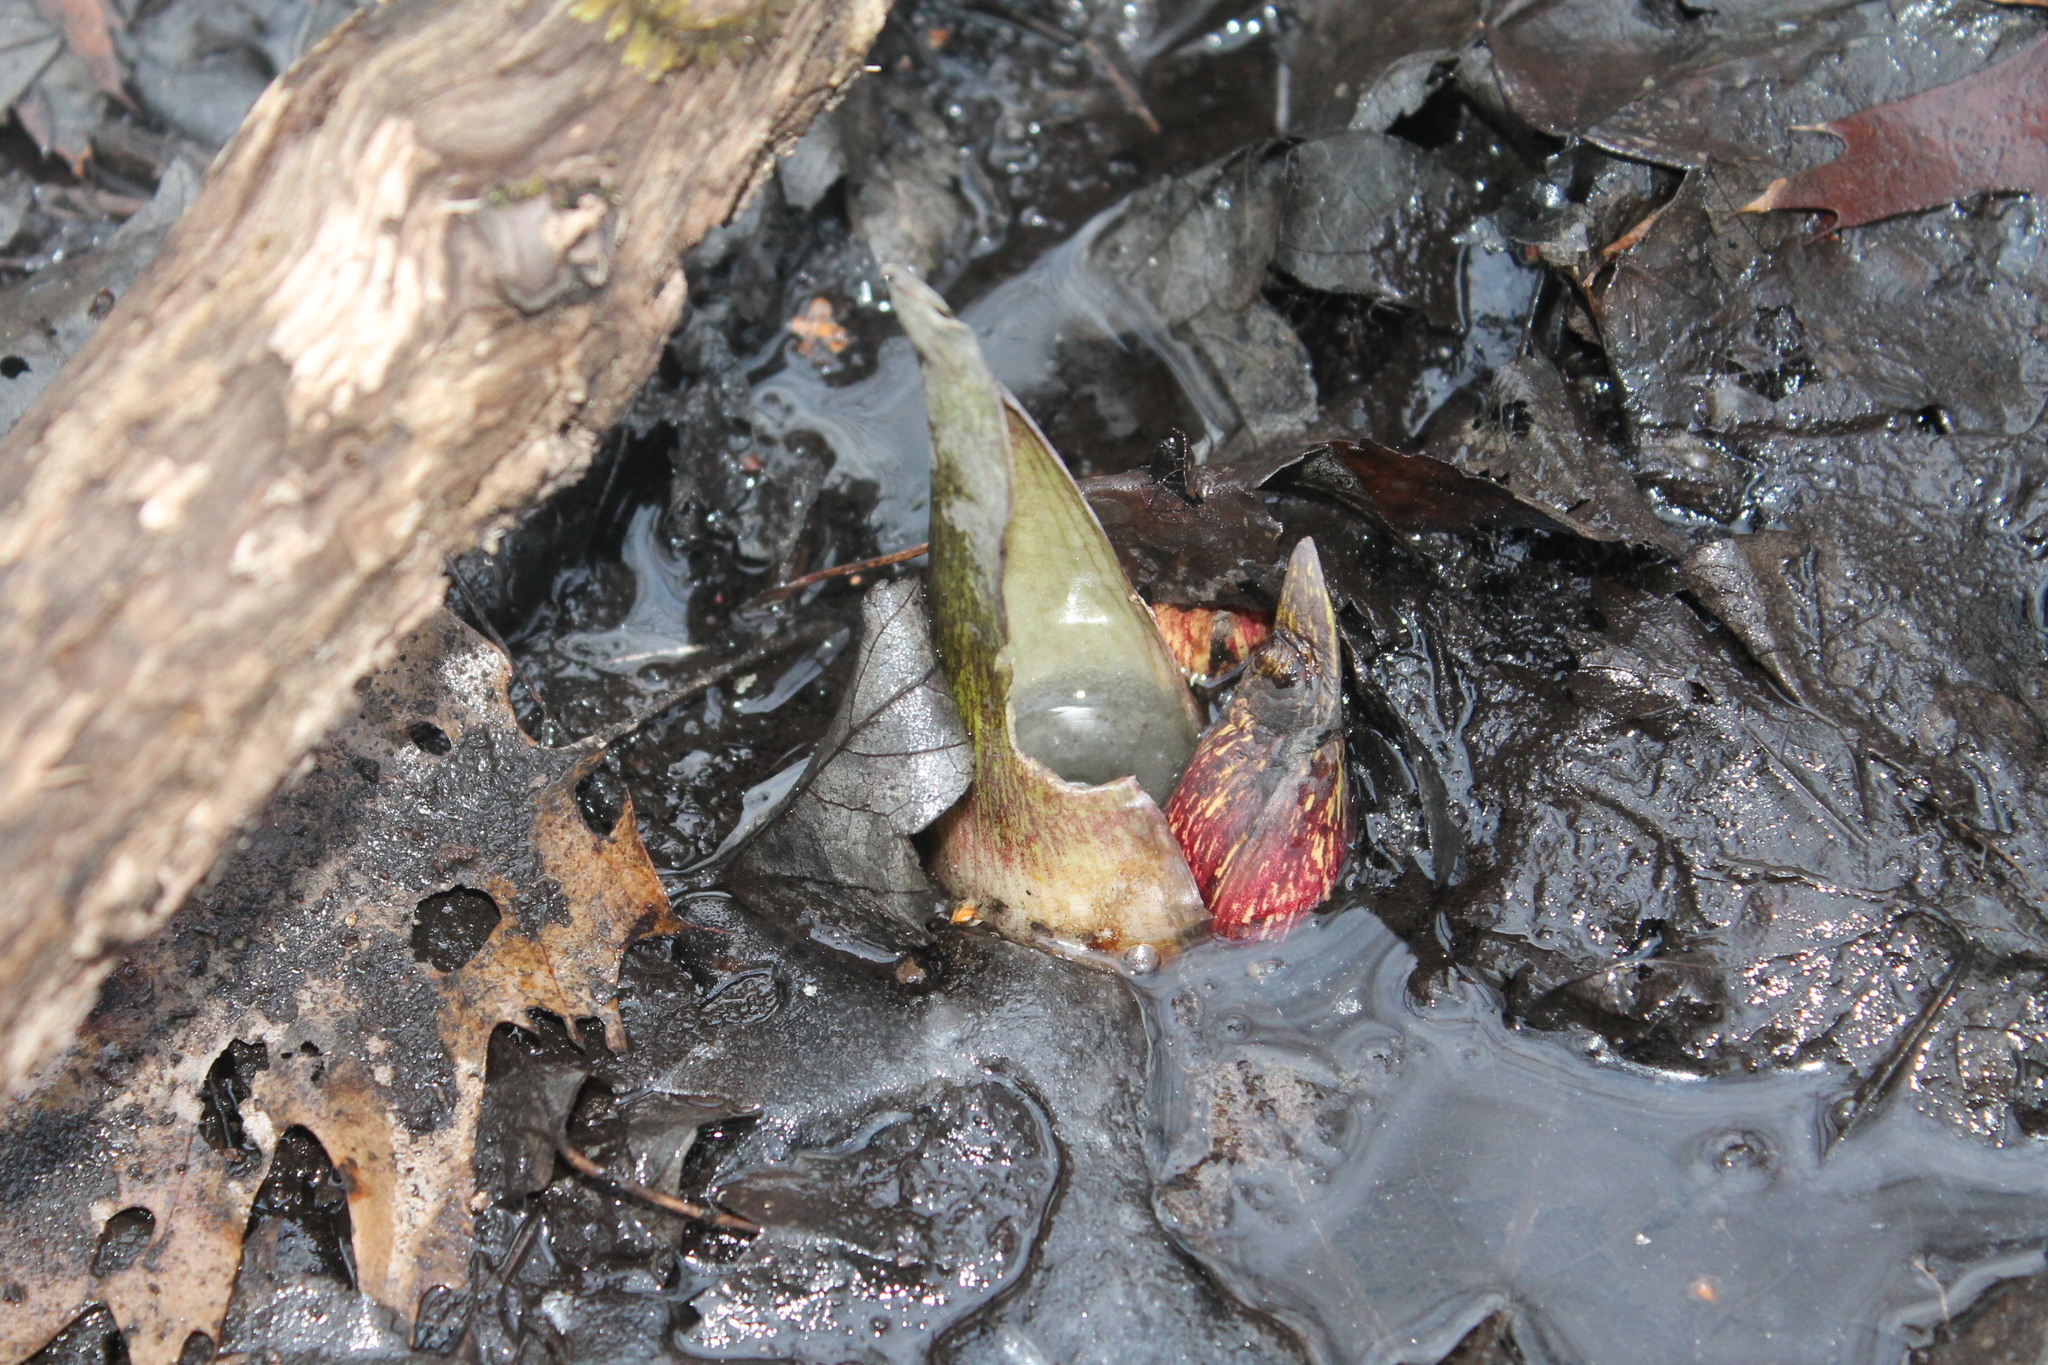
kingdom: Plantae
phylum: Tracheophyta
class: Liliopsida
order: Alismatales
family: Araceae
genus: Symplocarpus
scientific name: Symplocarpus foetidus
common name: Eastern skunk cabbage
